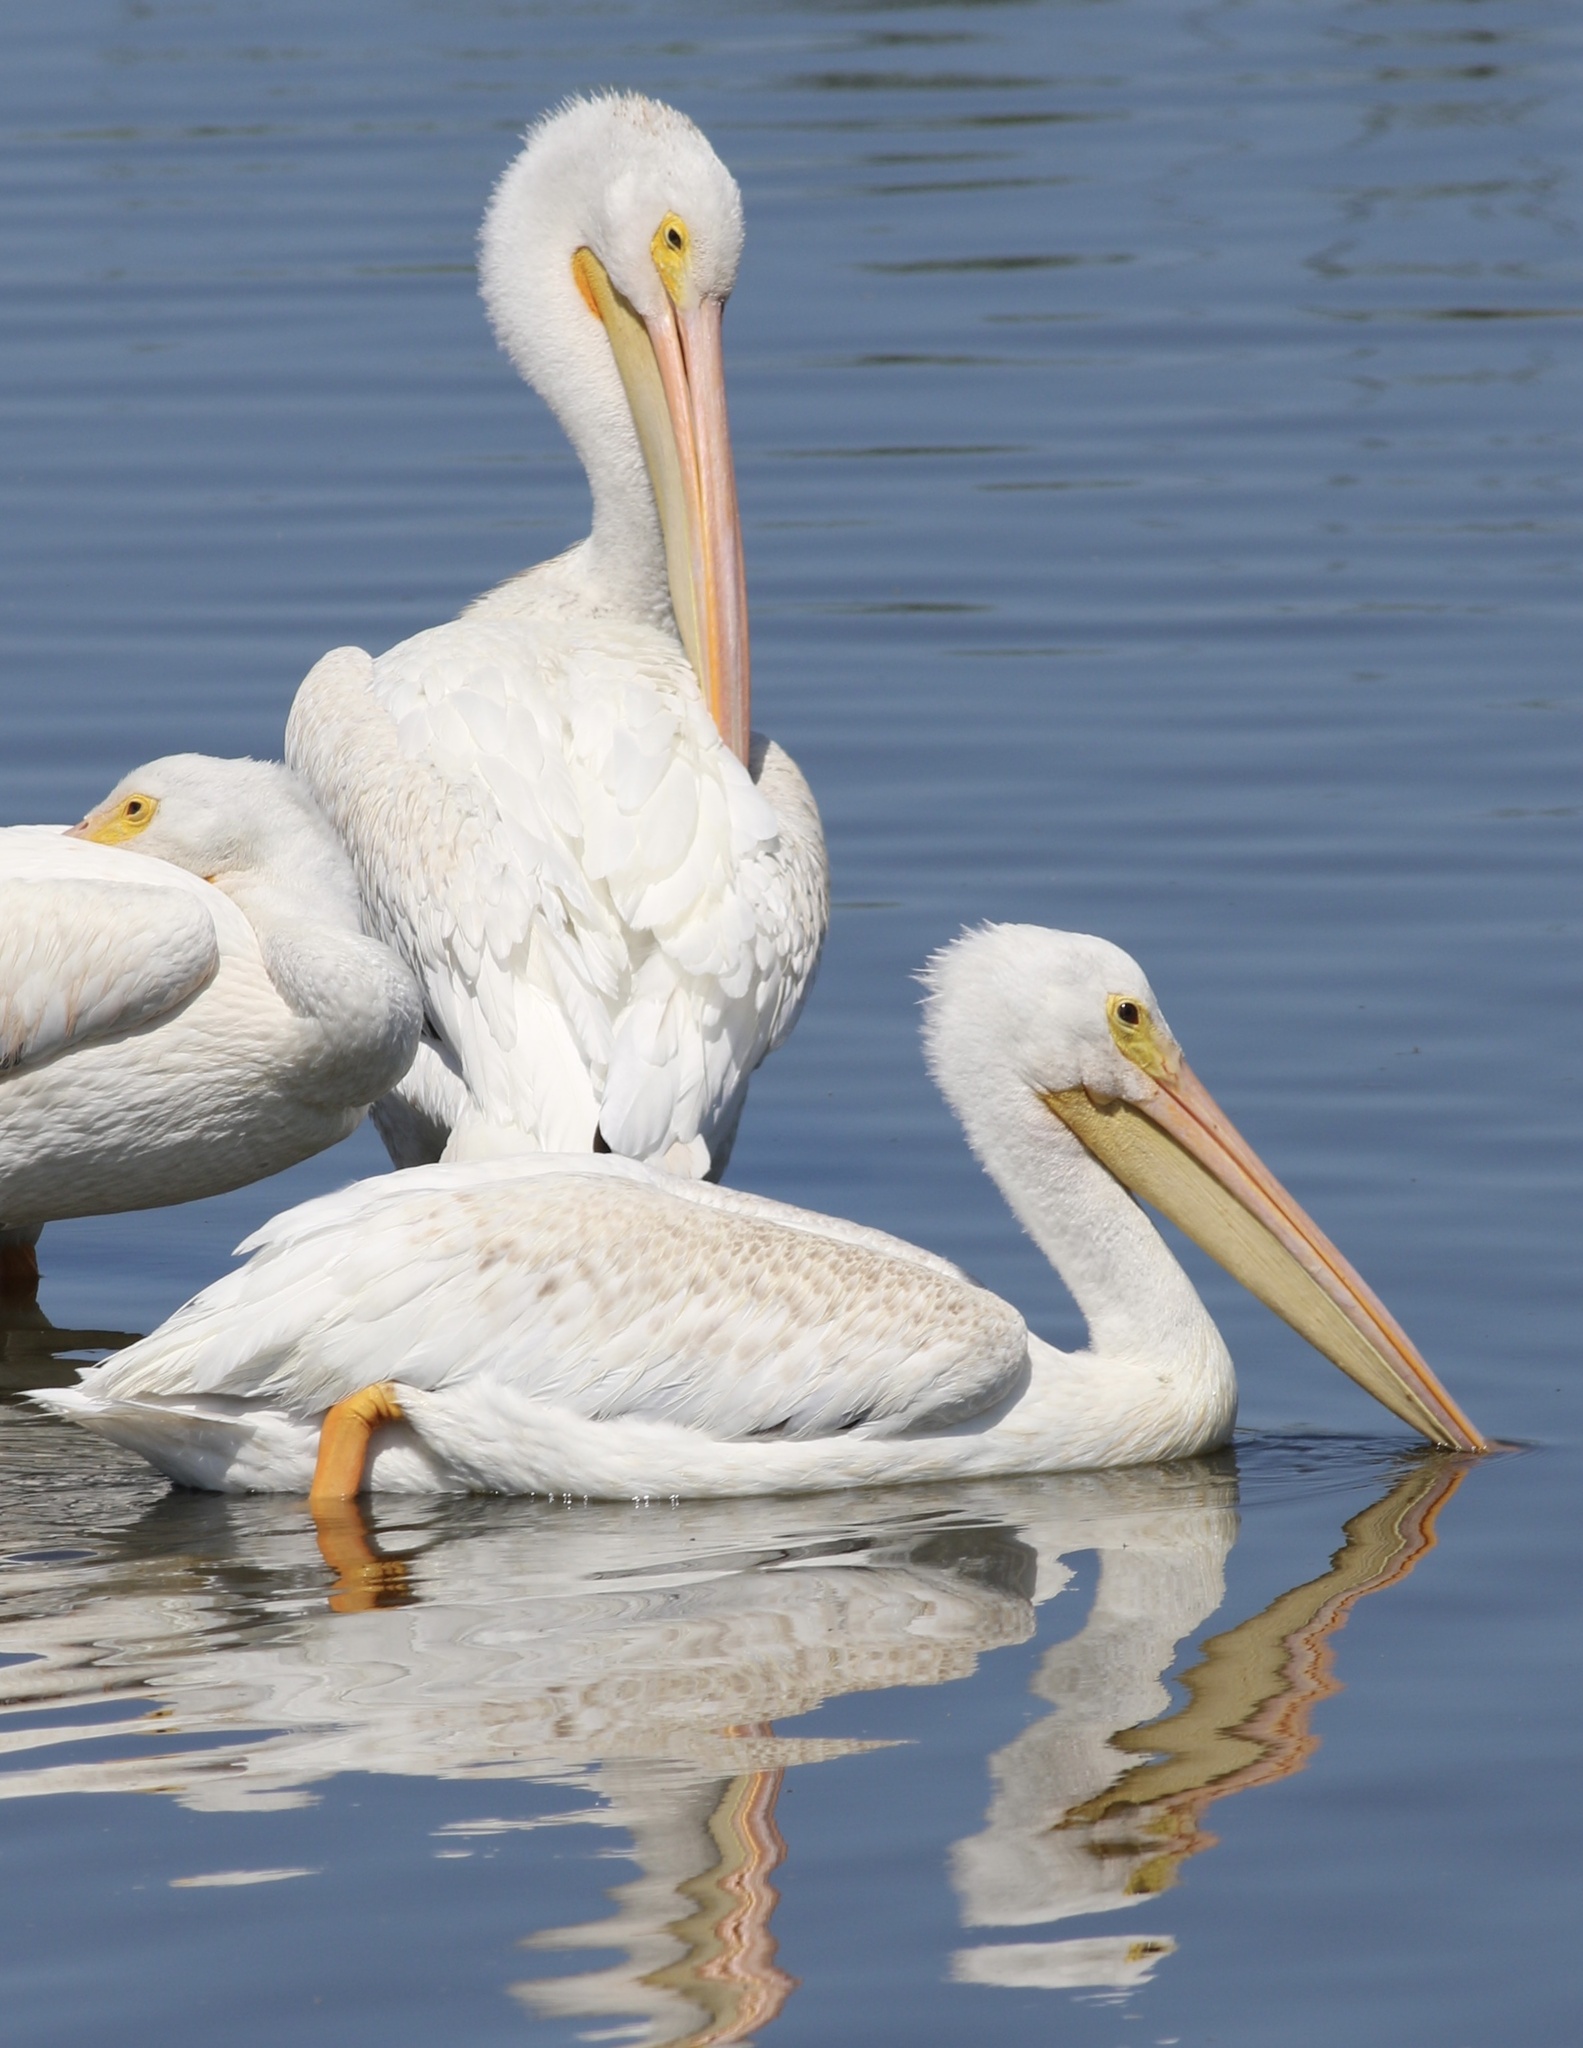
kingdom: Animalia
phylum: Chordata
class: Aves
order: Pelecaniformes
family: Pelecanidae
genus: Pelecanus
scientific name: Pelecanus erythrorhynchos
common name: American white pelican
